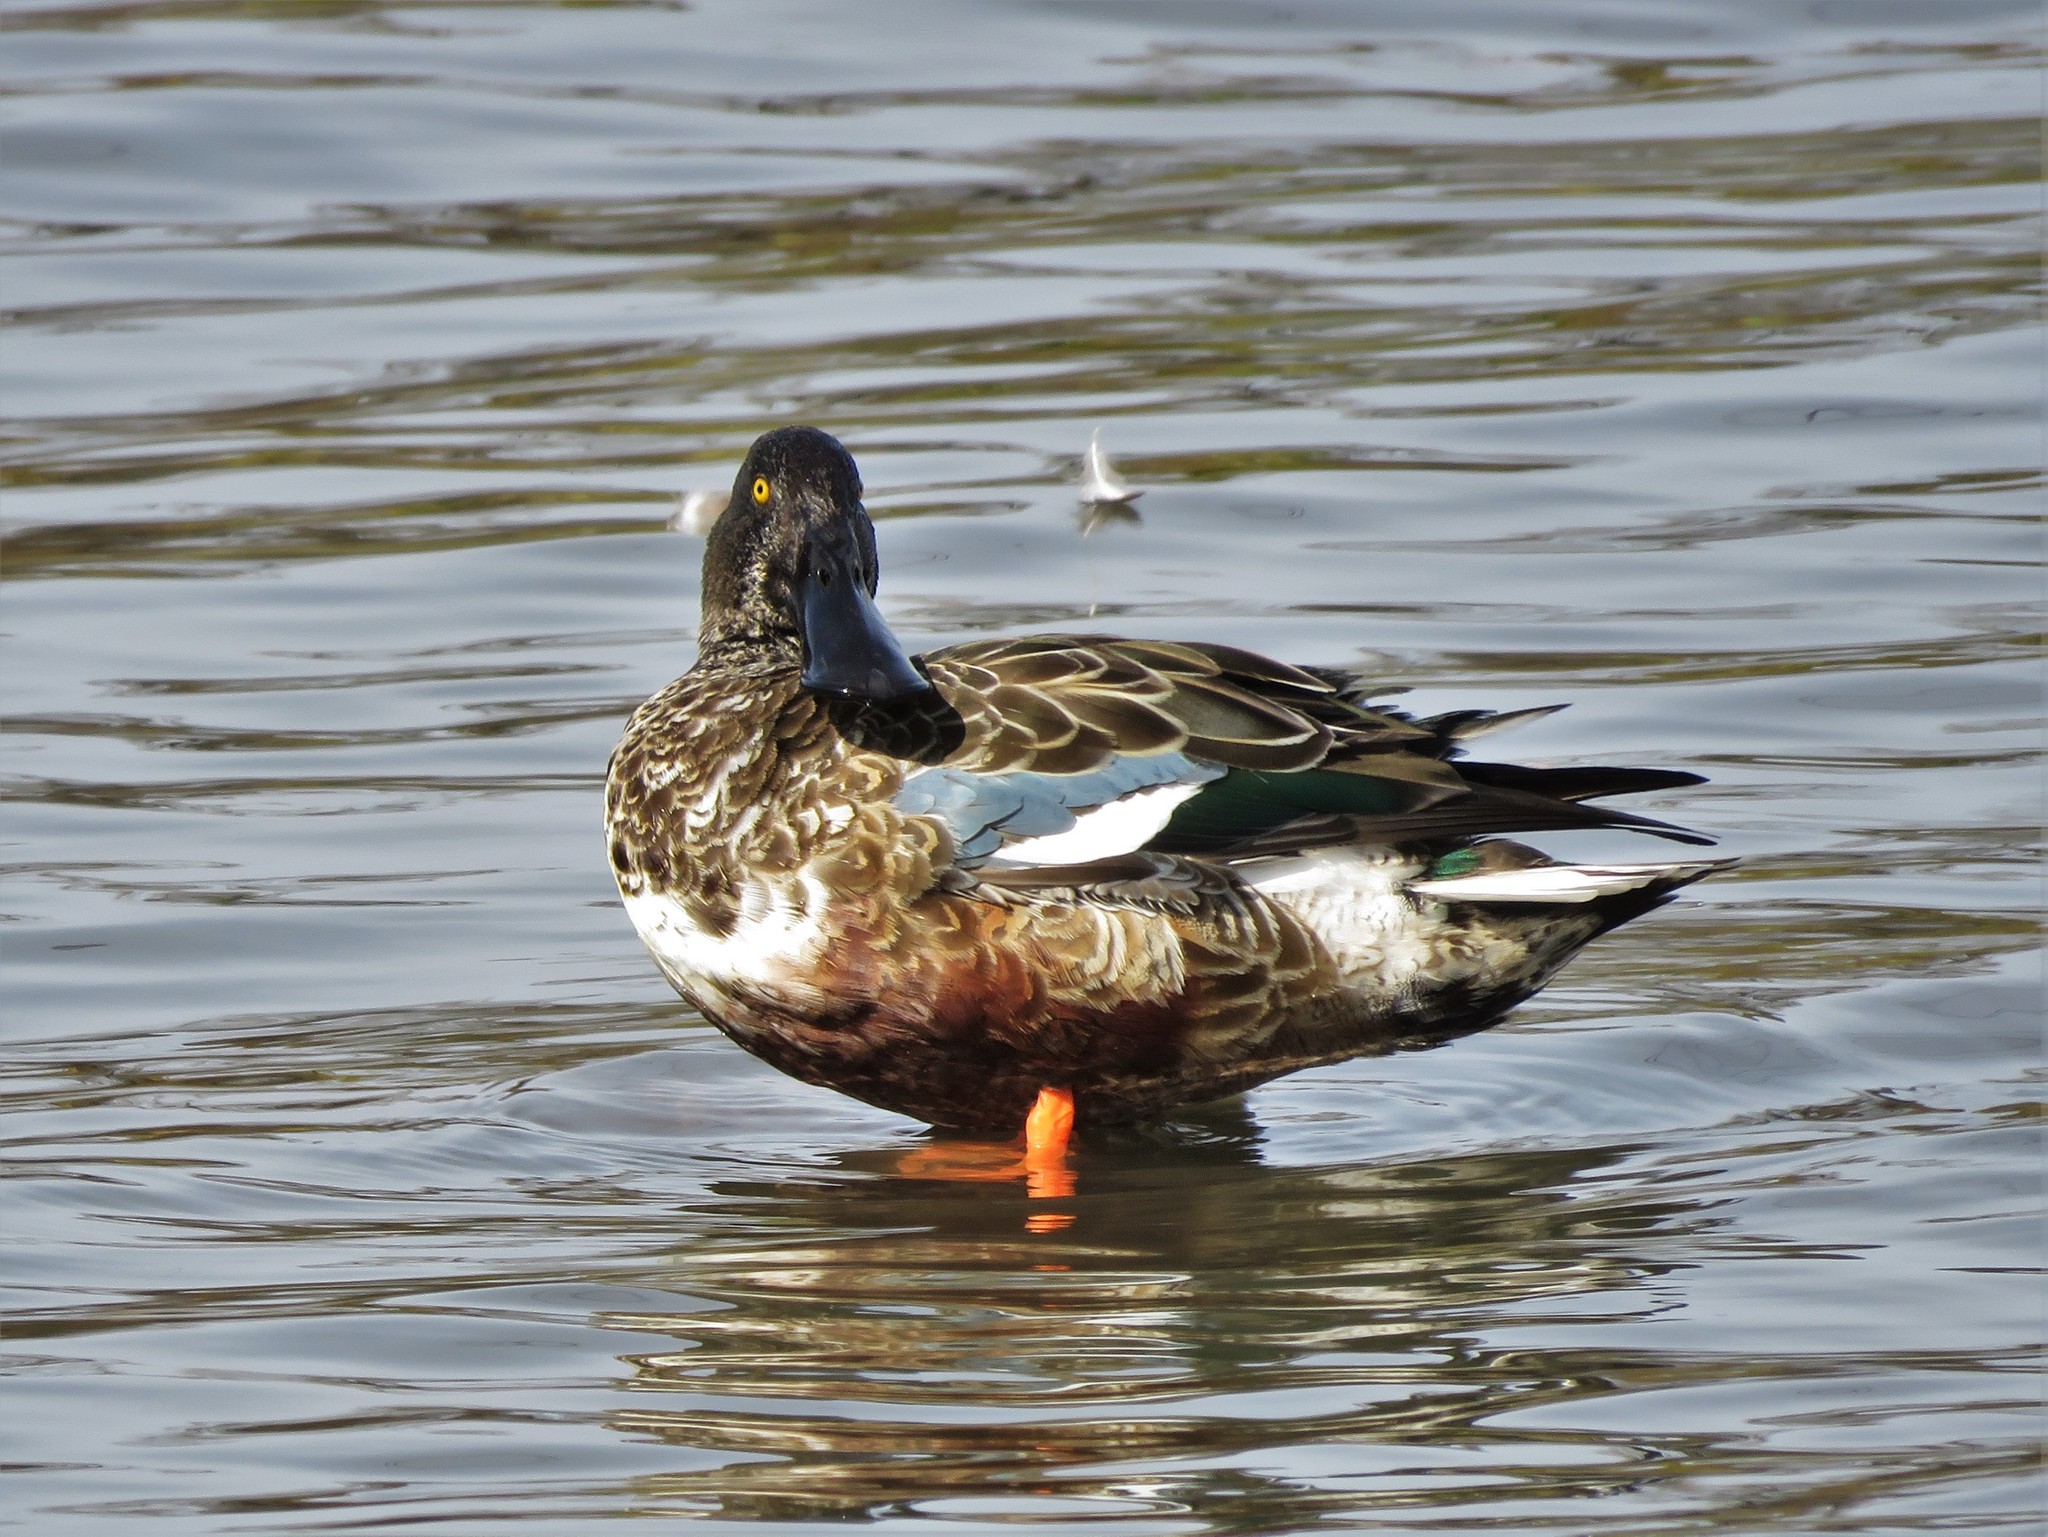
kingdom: Animalia
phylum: Chordata
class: Aves
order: Anseriformes
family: Anatidae
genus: Spatula
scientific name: Spatula clypeata
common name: Northern shoveler
